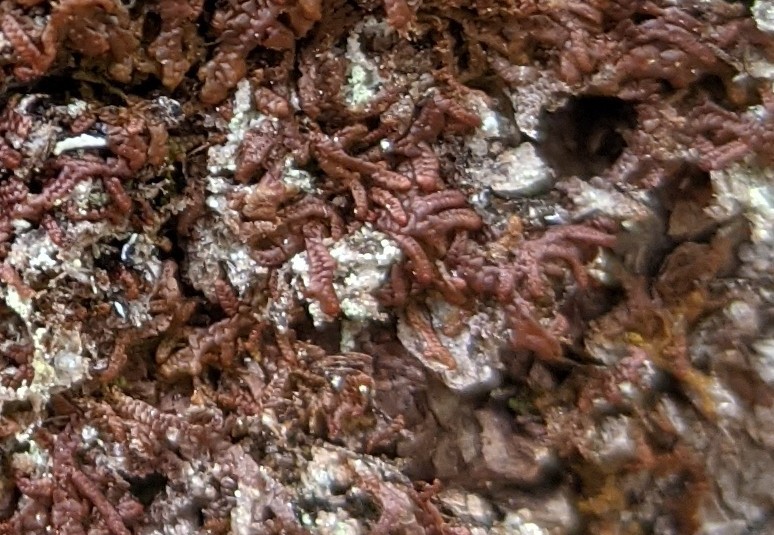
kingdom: Plantae
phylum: Marchantiophyta
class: Jungermanniopsida
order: Porellales
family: Frullaniaceae
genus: Frullania
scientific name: Frullania asagrayana
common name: Asa gray s scalewort
